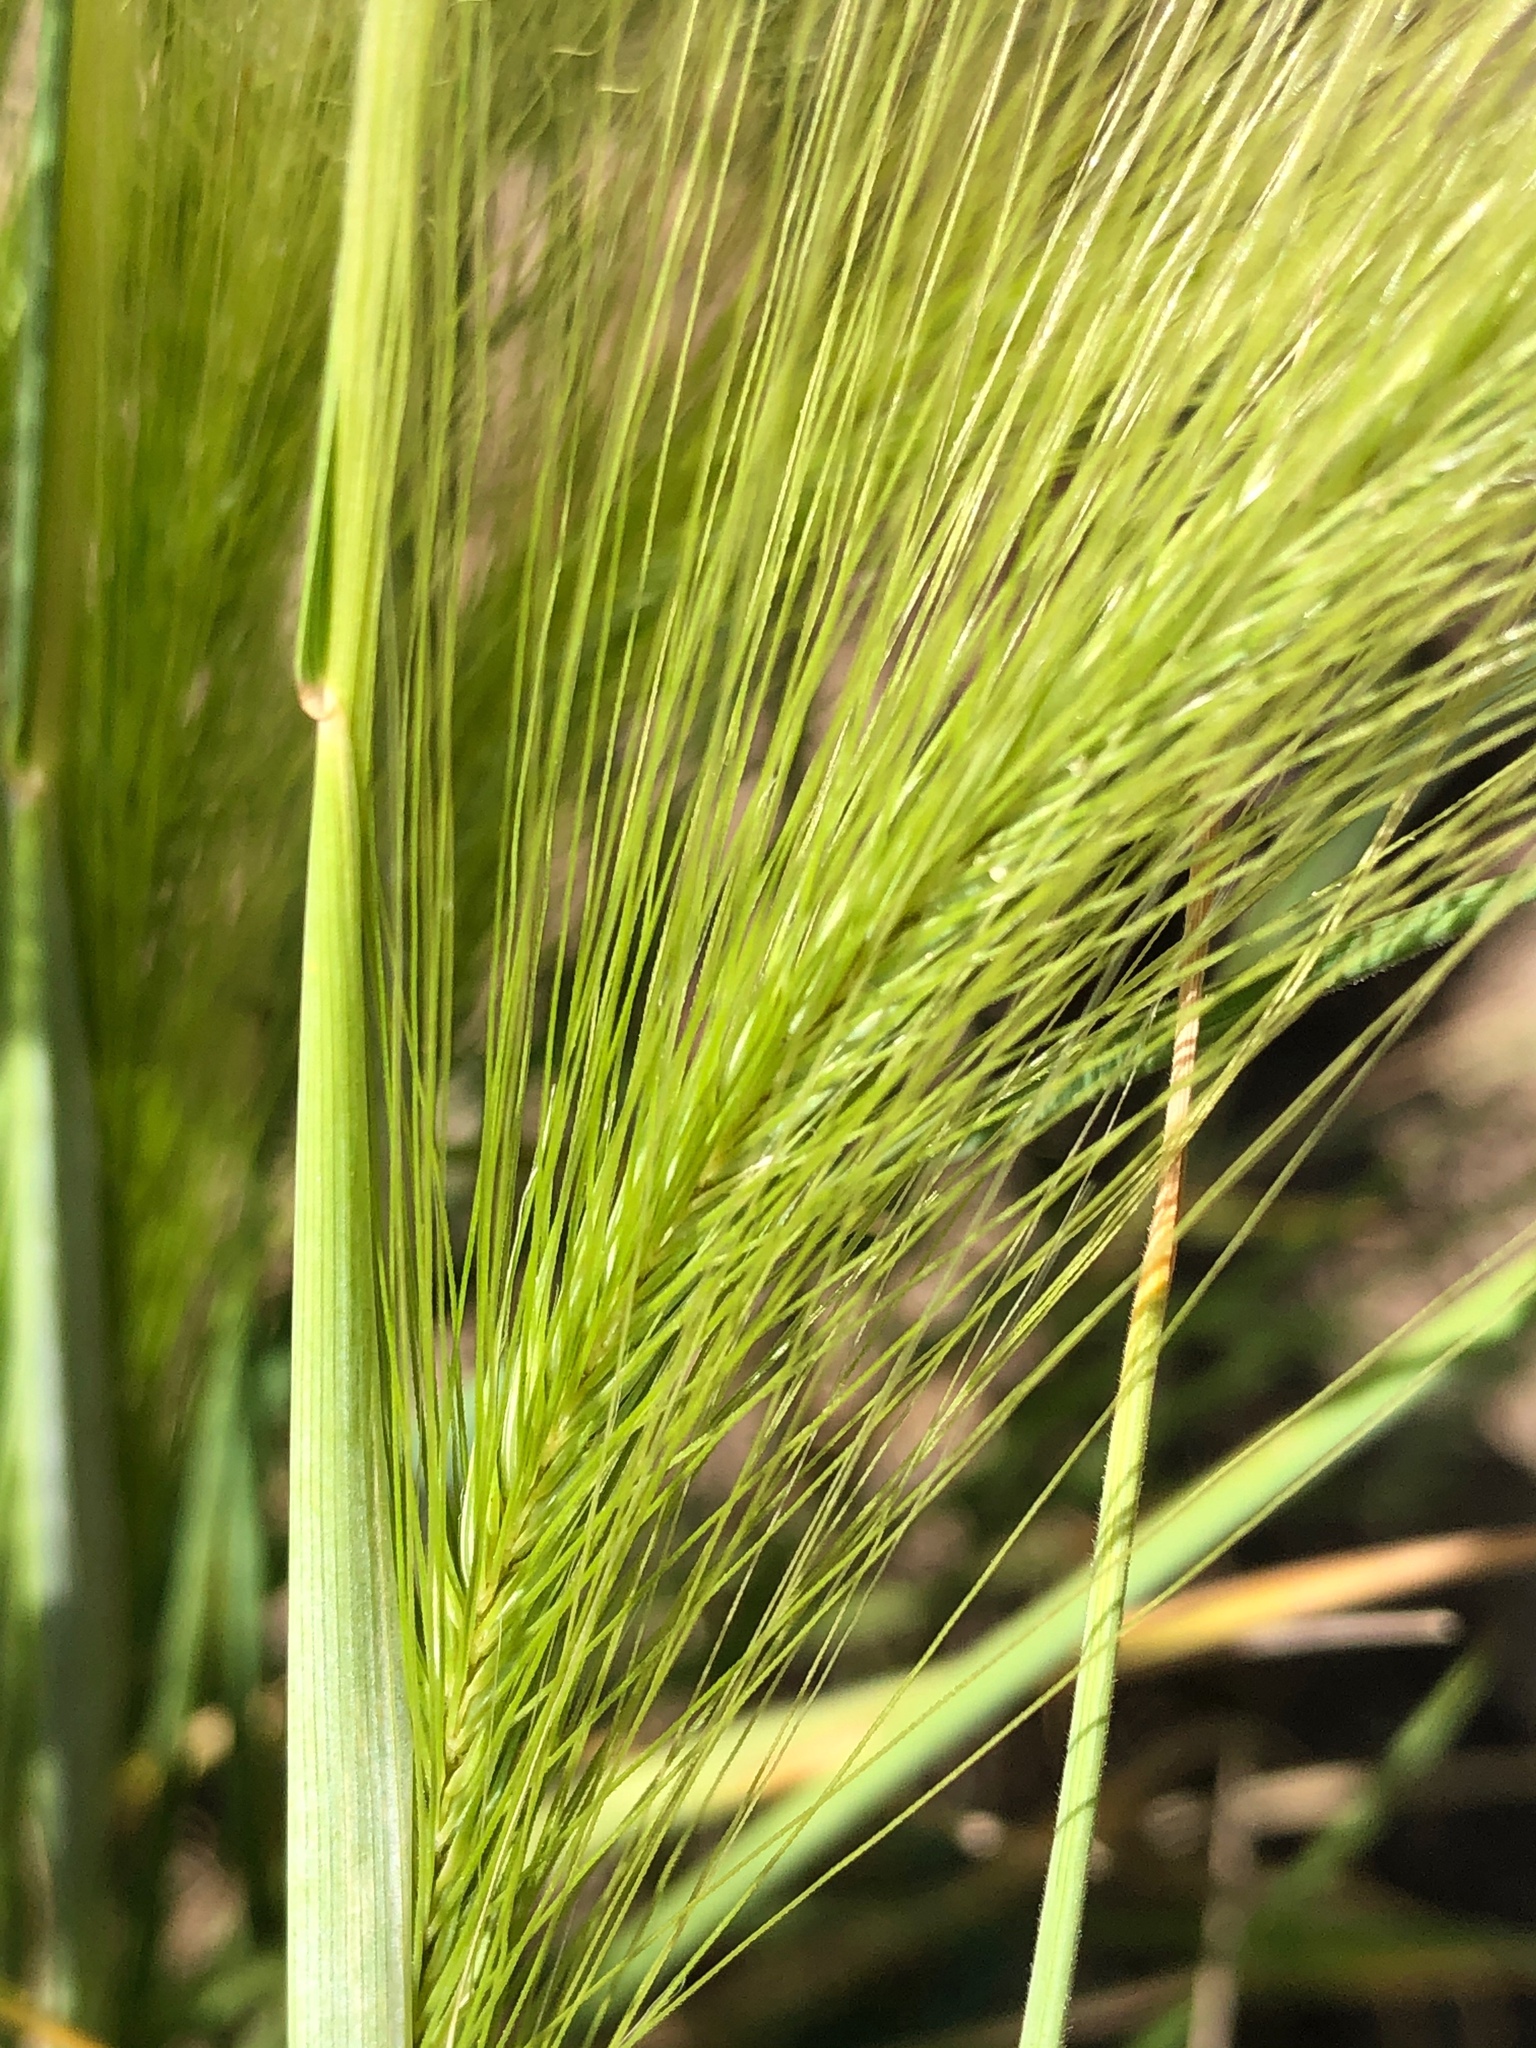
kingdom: Plantae
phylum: Tracheophyta
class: Liliopsida
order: Poales
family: Poaceae
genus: Hordeum
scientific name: Hordeum jubatum
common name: Foxtail barley
